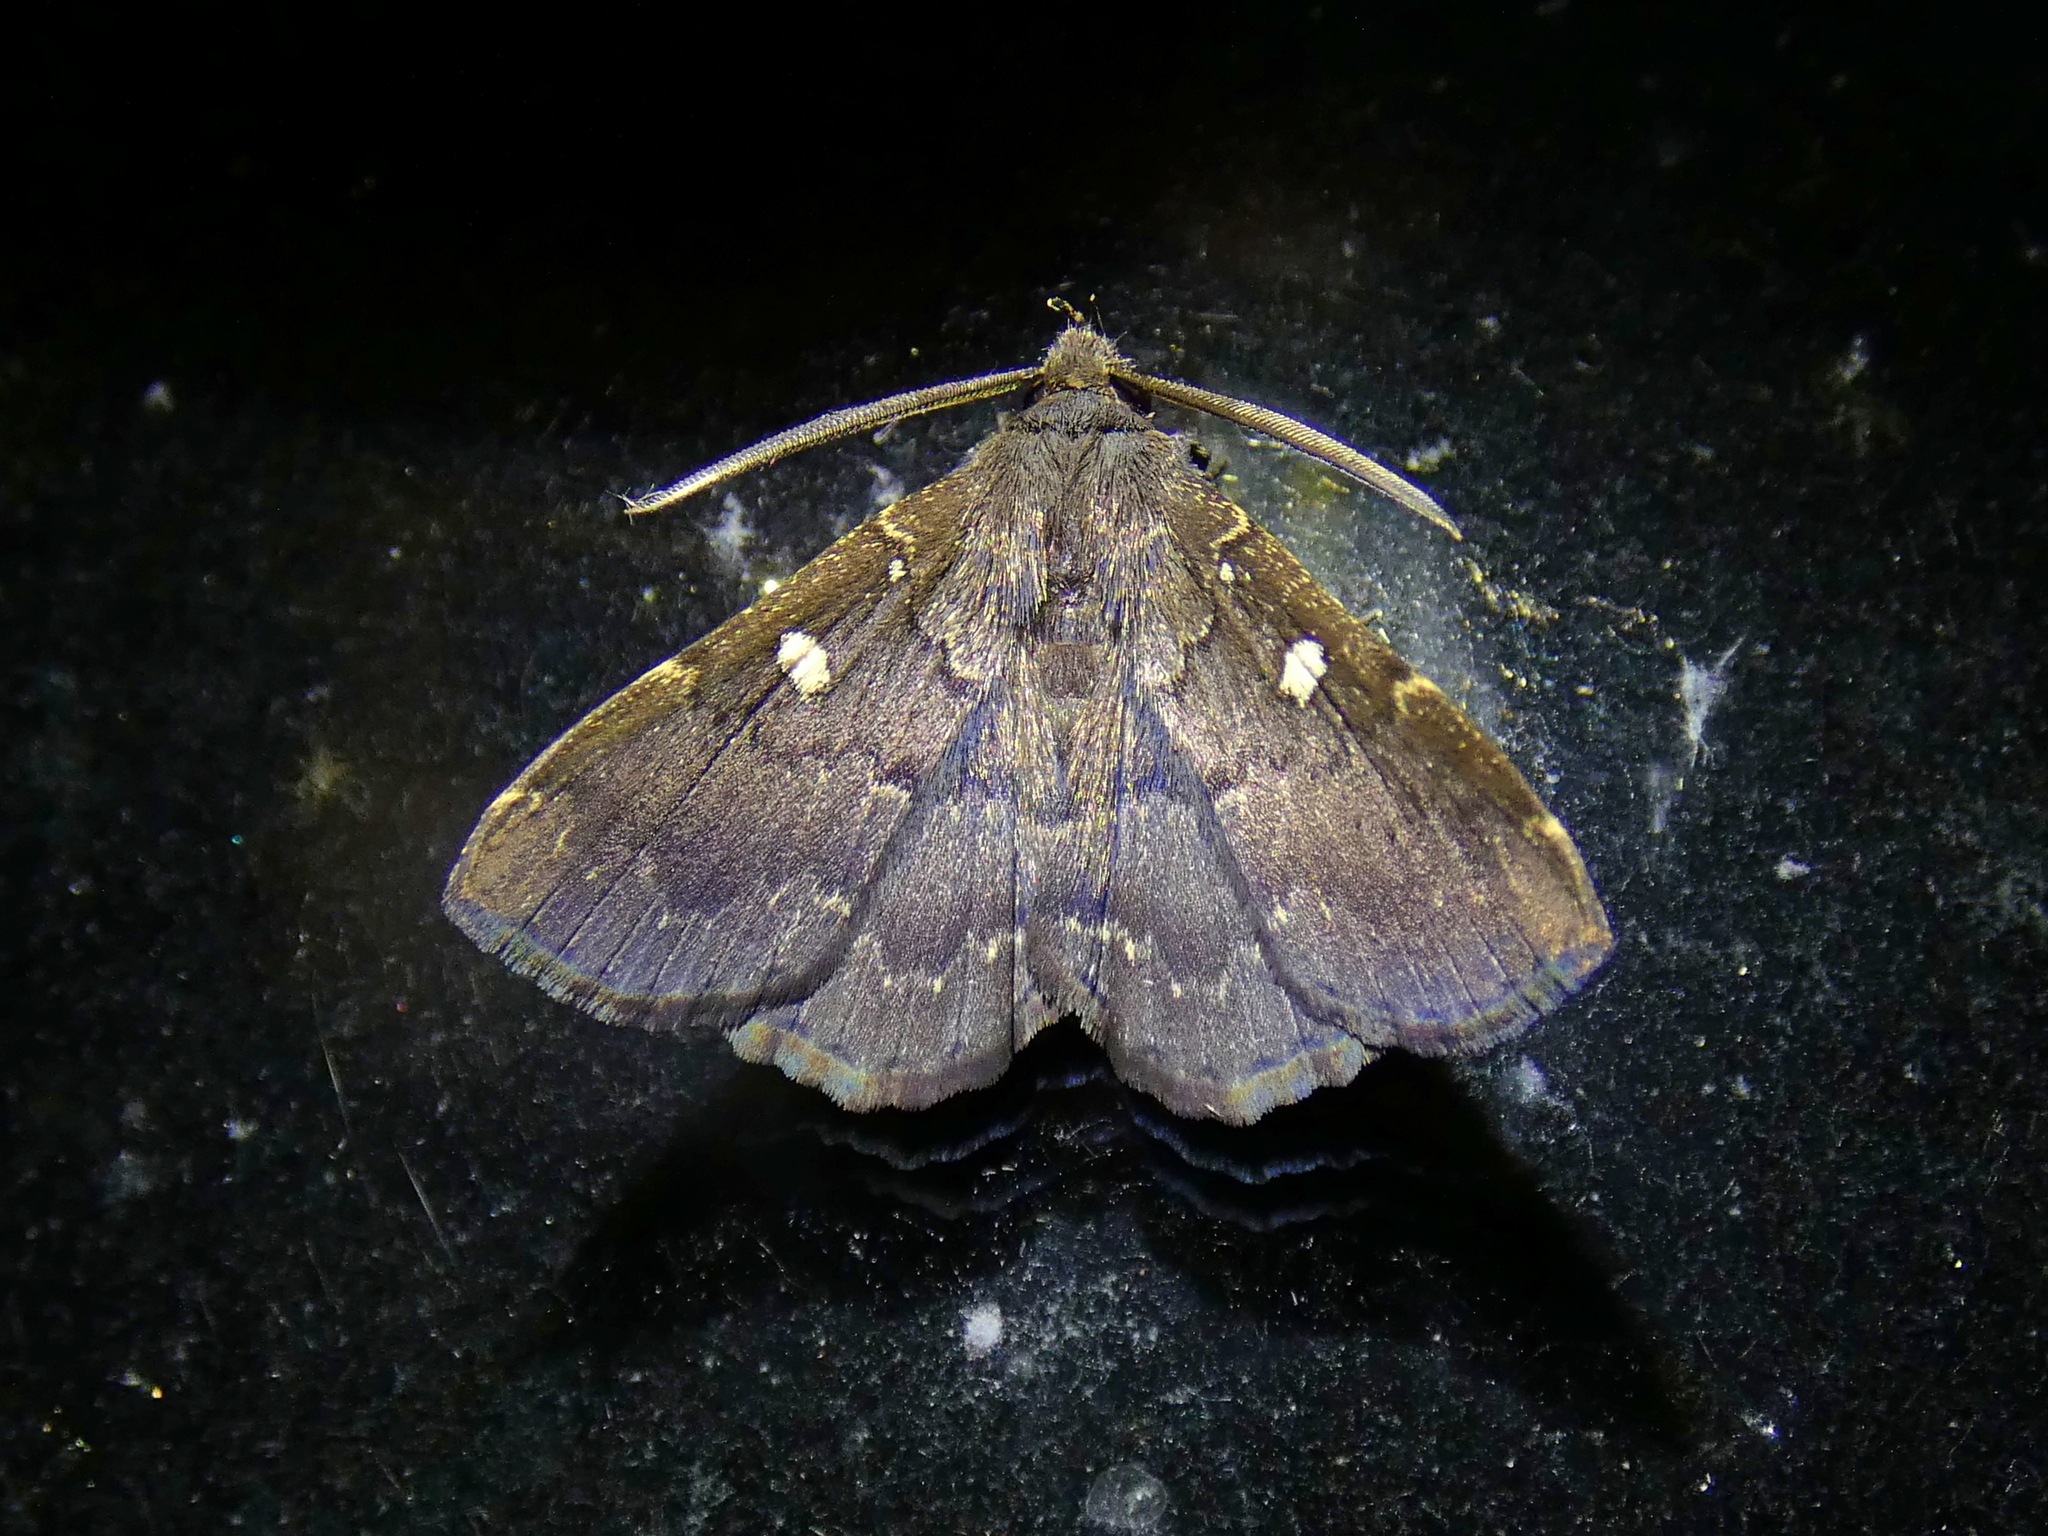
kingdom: Animalia
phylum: Arthropoda
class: Insecta
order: Lepidoptera
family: Erebidae
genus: Bocana
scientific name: Bocana manifestalis
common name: Moth
